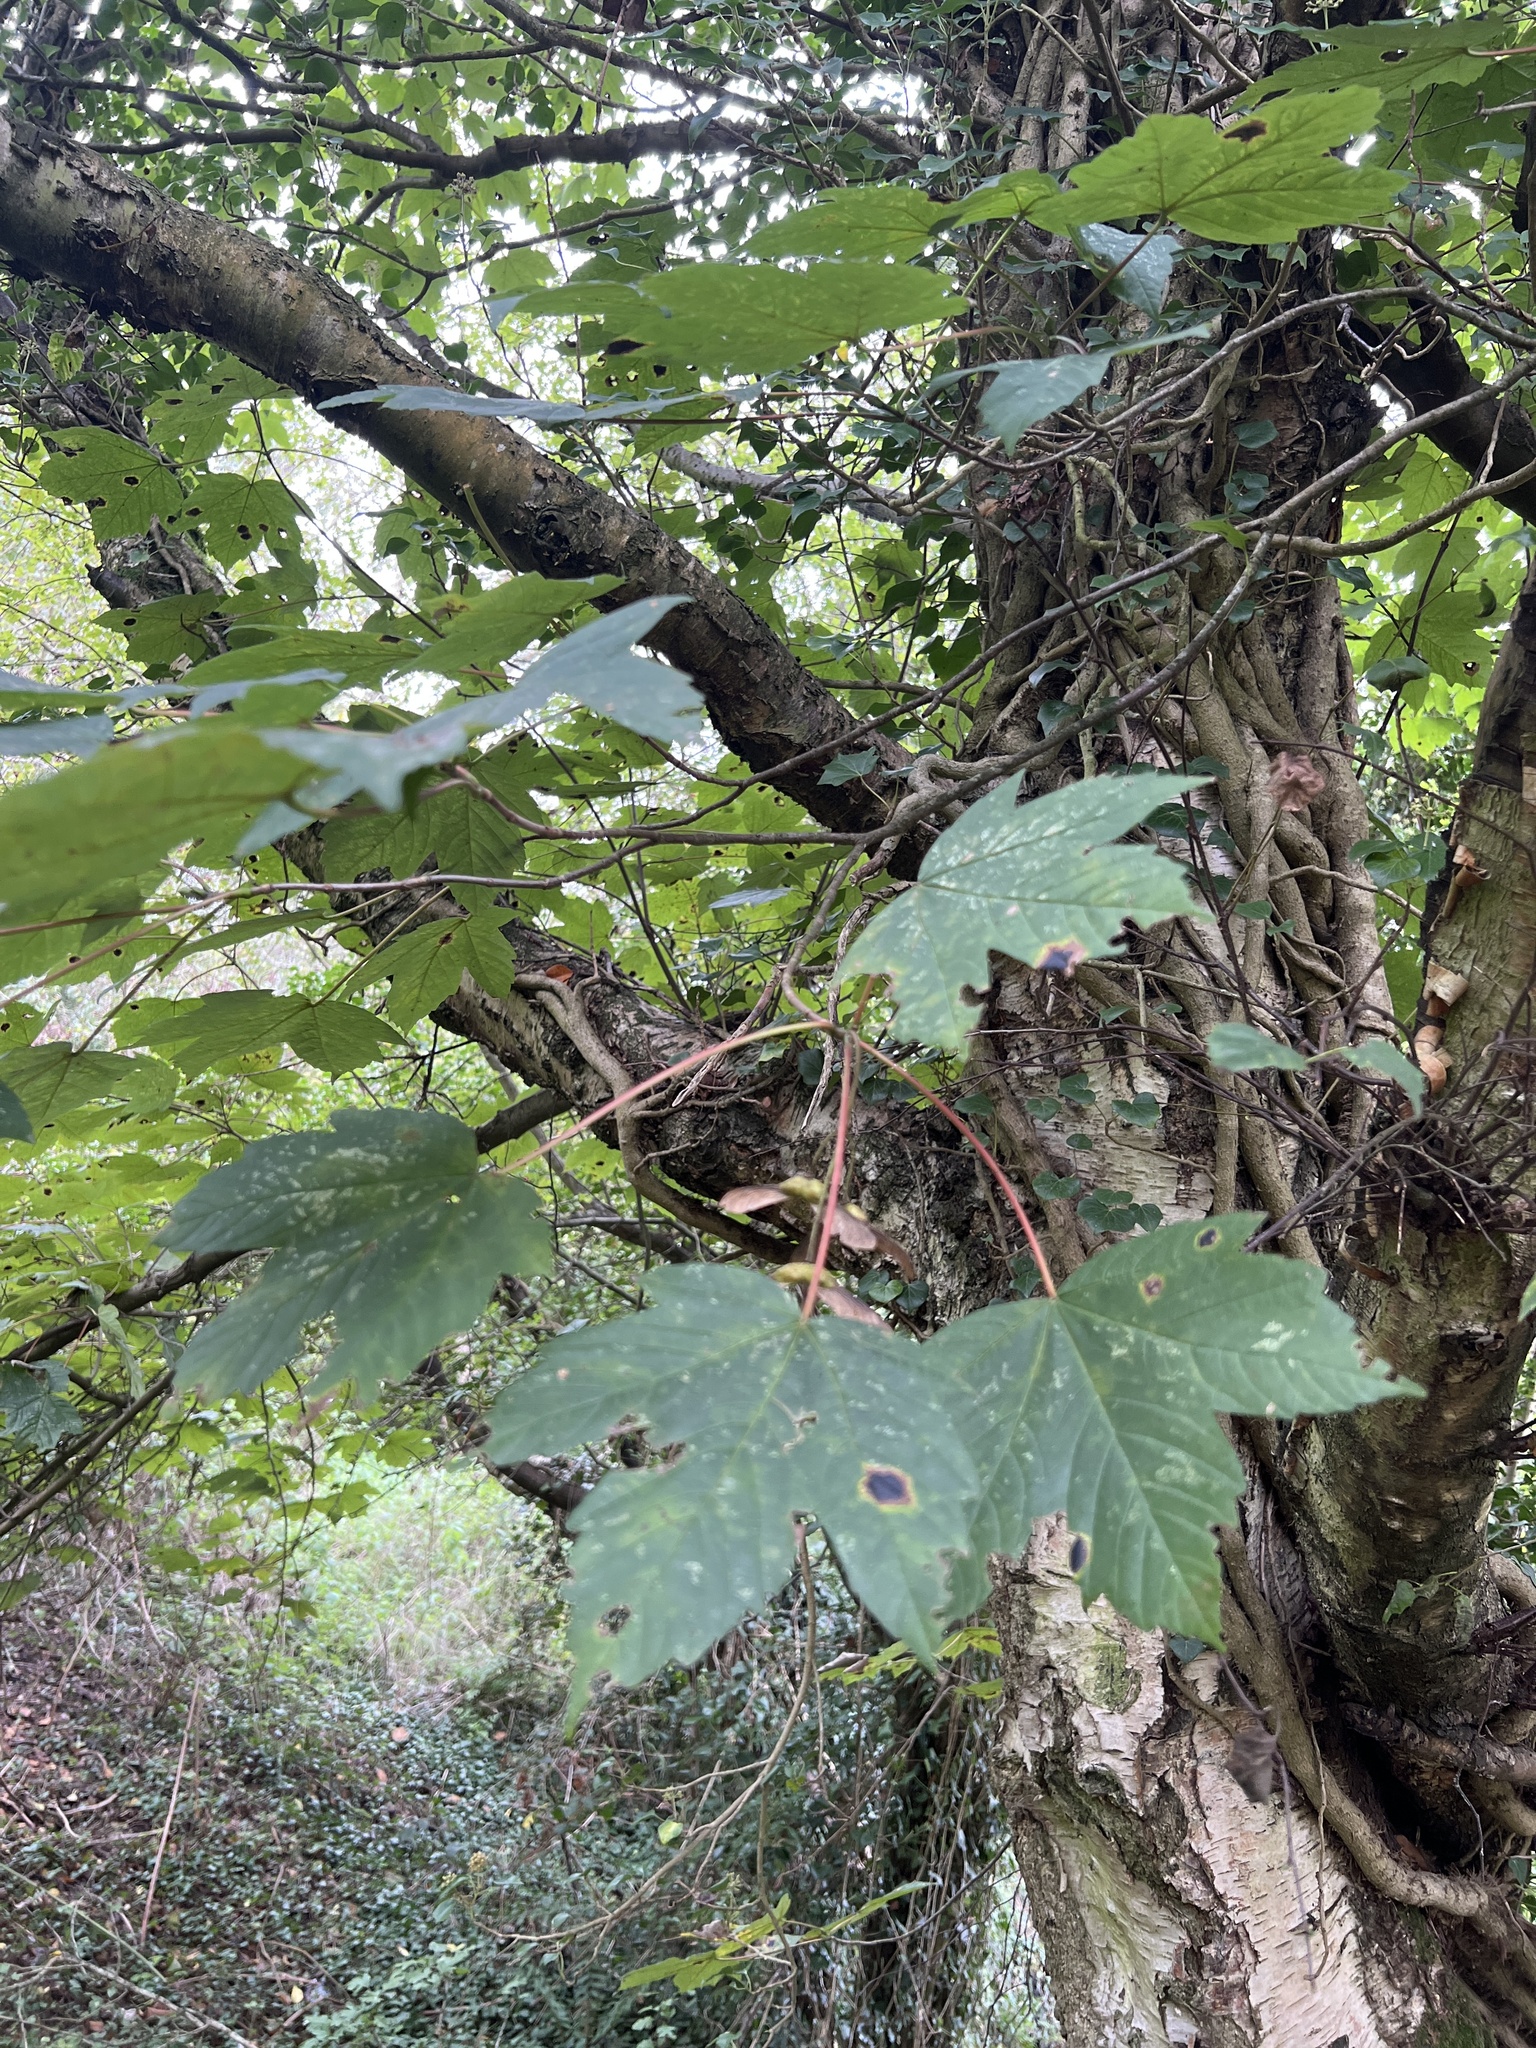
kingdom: Plantae
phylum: Tracheophyta
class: Magnoliopsida
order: Sapindales
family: Sapindaceae
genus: Acer
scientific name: Acer pseudoplatanus
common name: Sycamore
